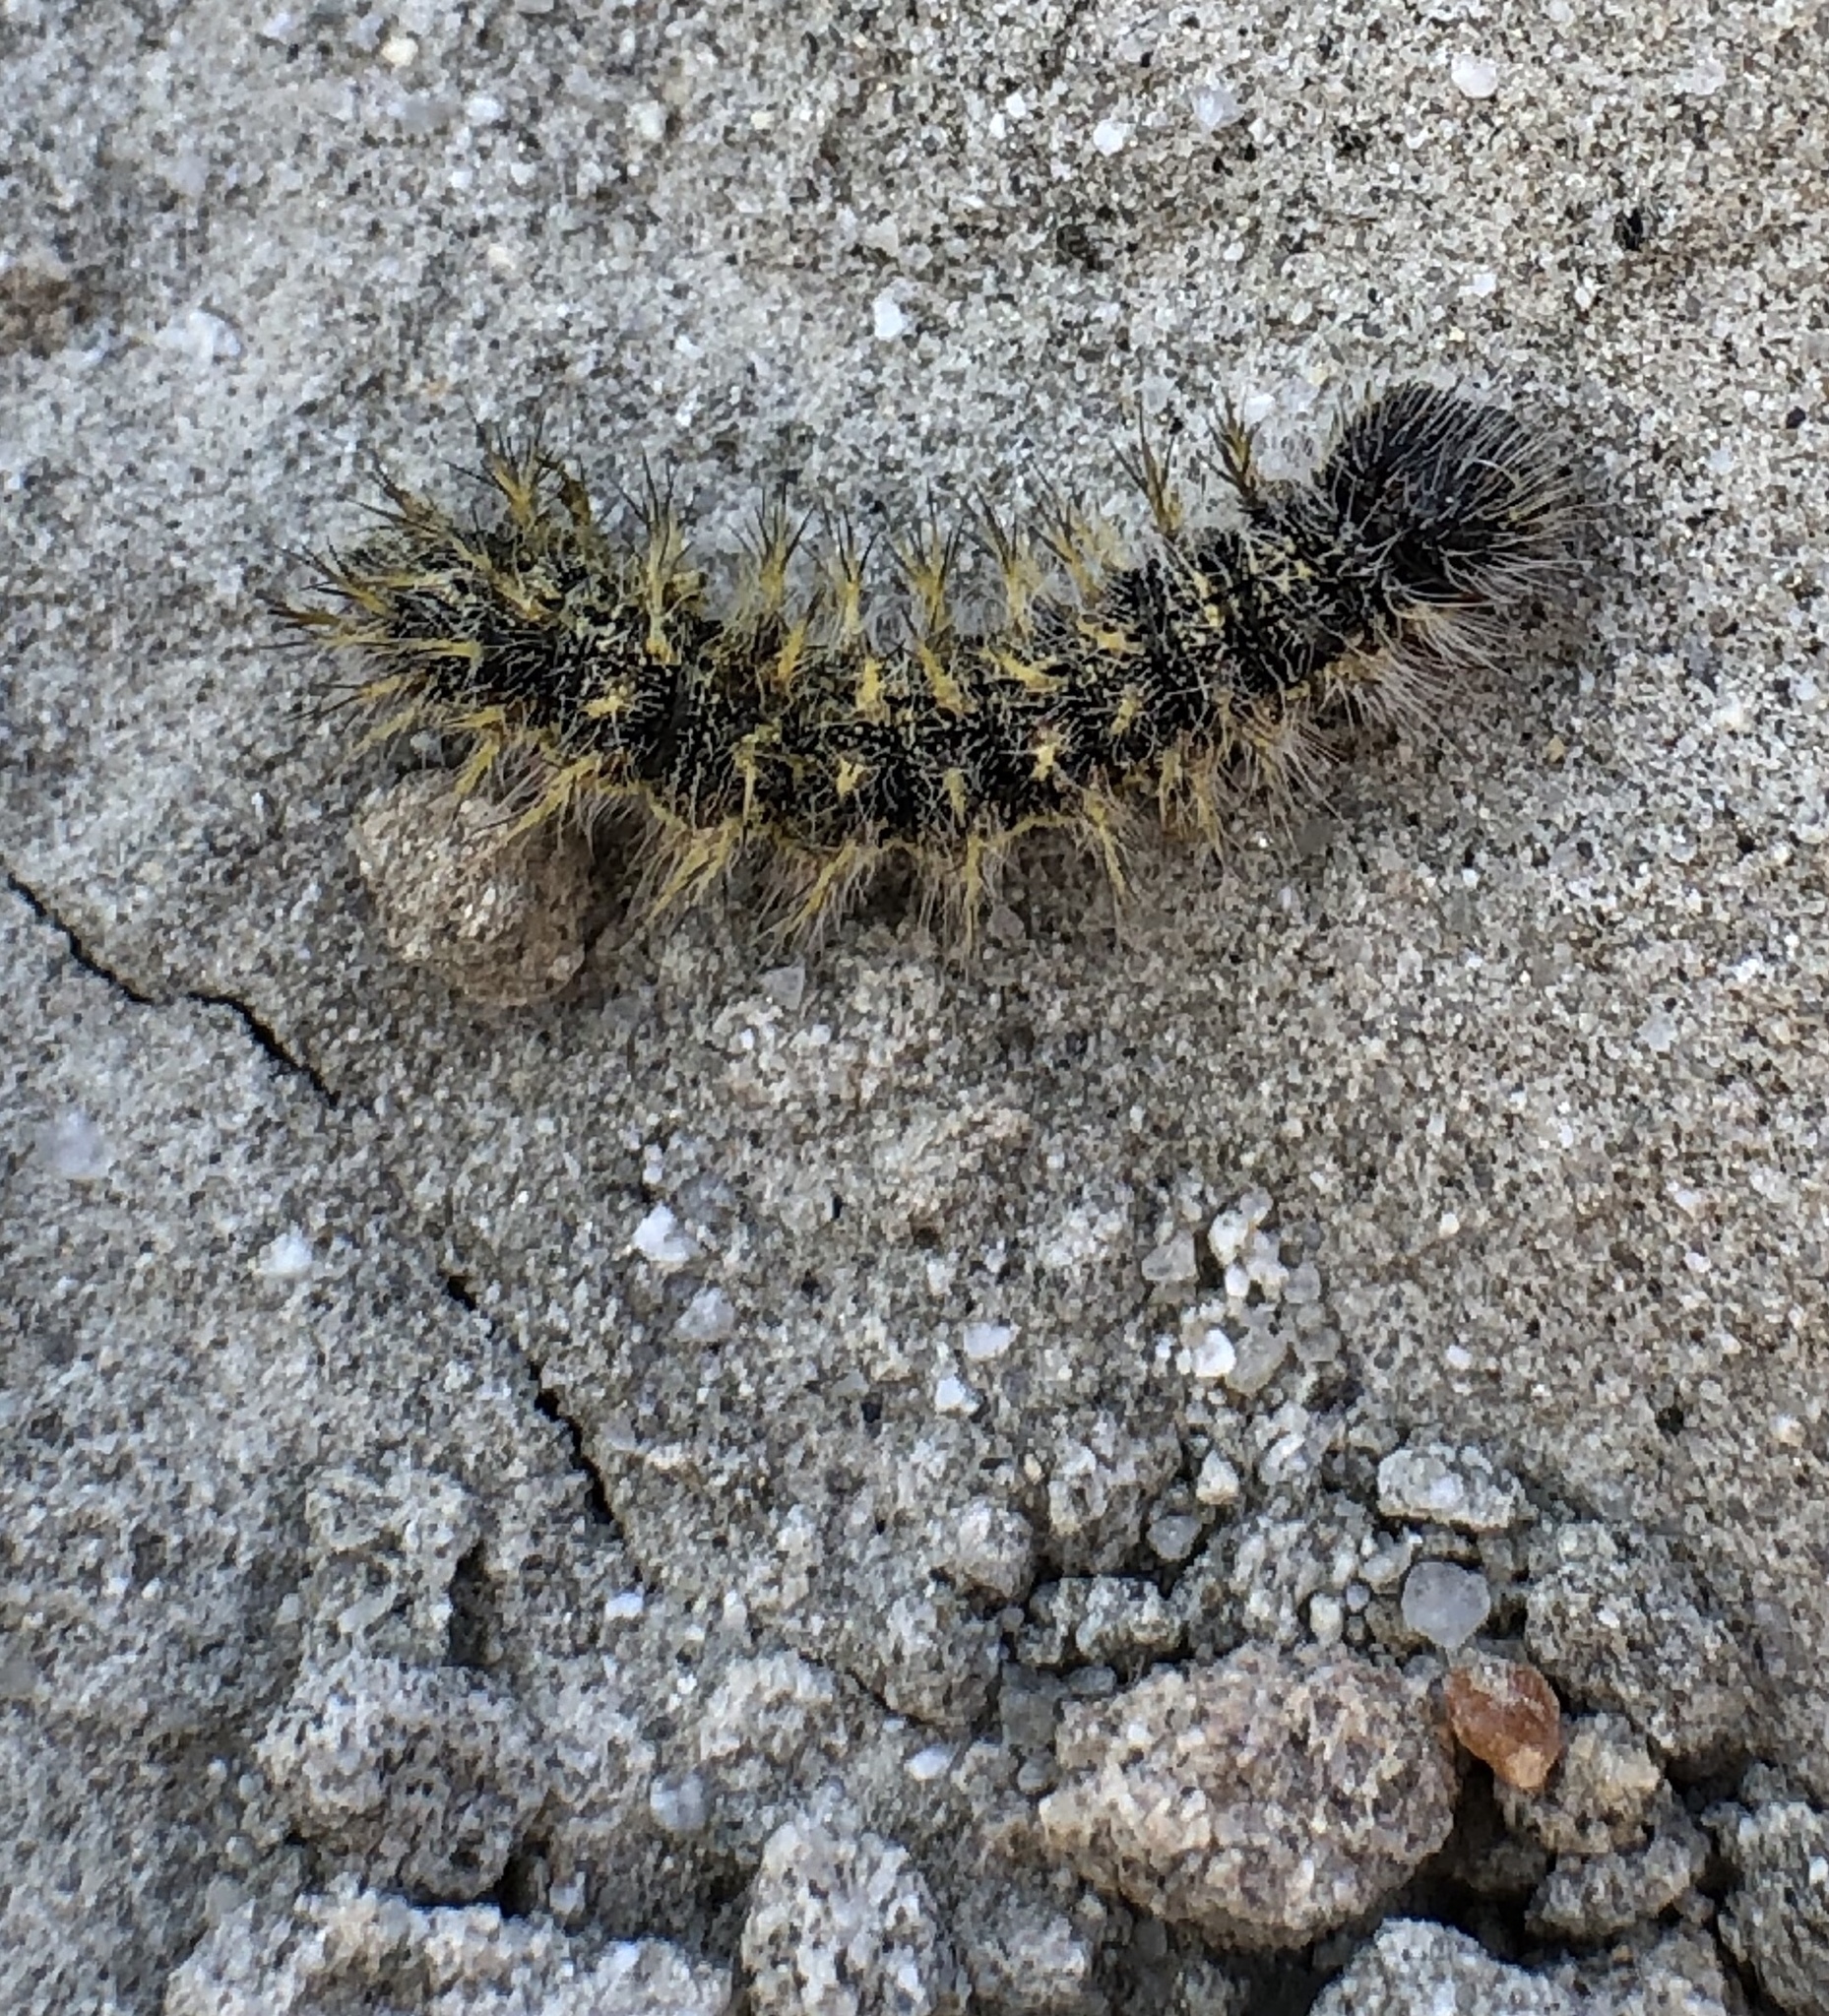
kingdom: Animalia
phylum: Arthropoda
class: Insecta
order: Lepidoptera
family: Nymphalidae
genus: Vanessa
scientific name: Vanessa cardui
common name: Painted lady
